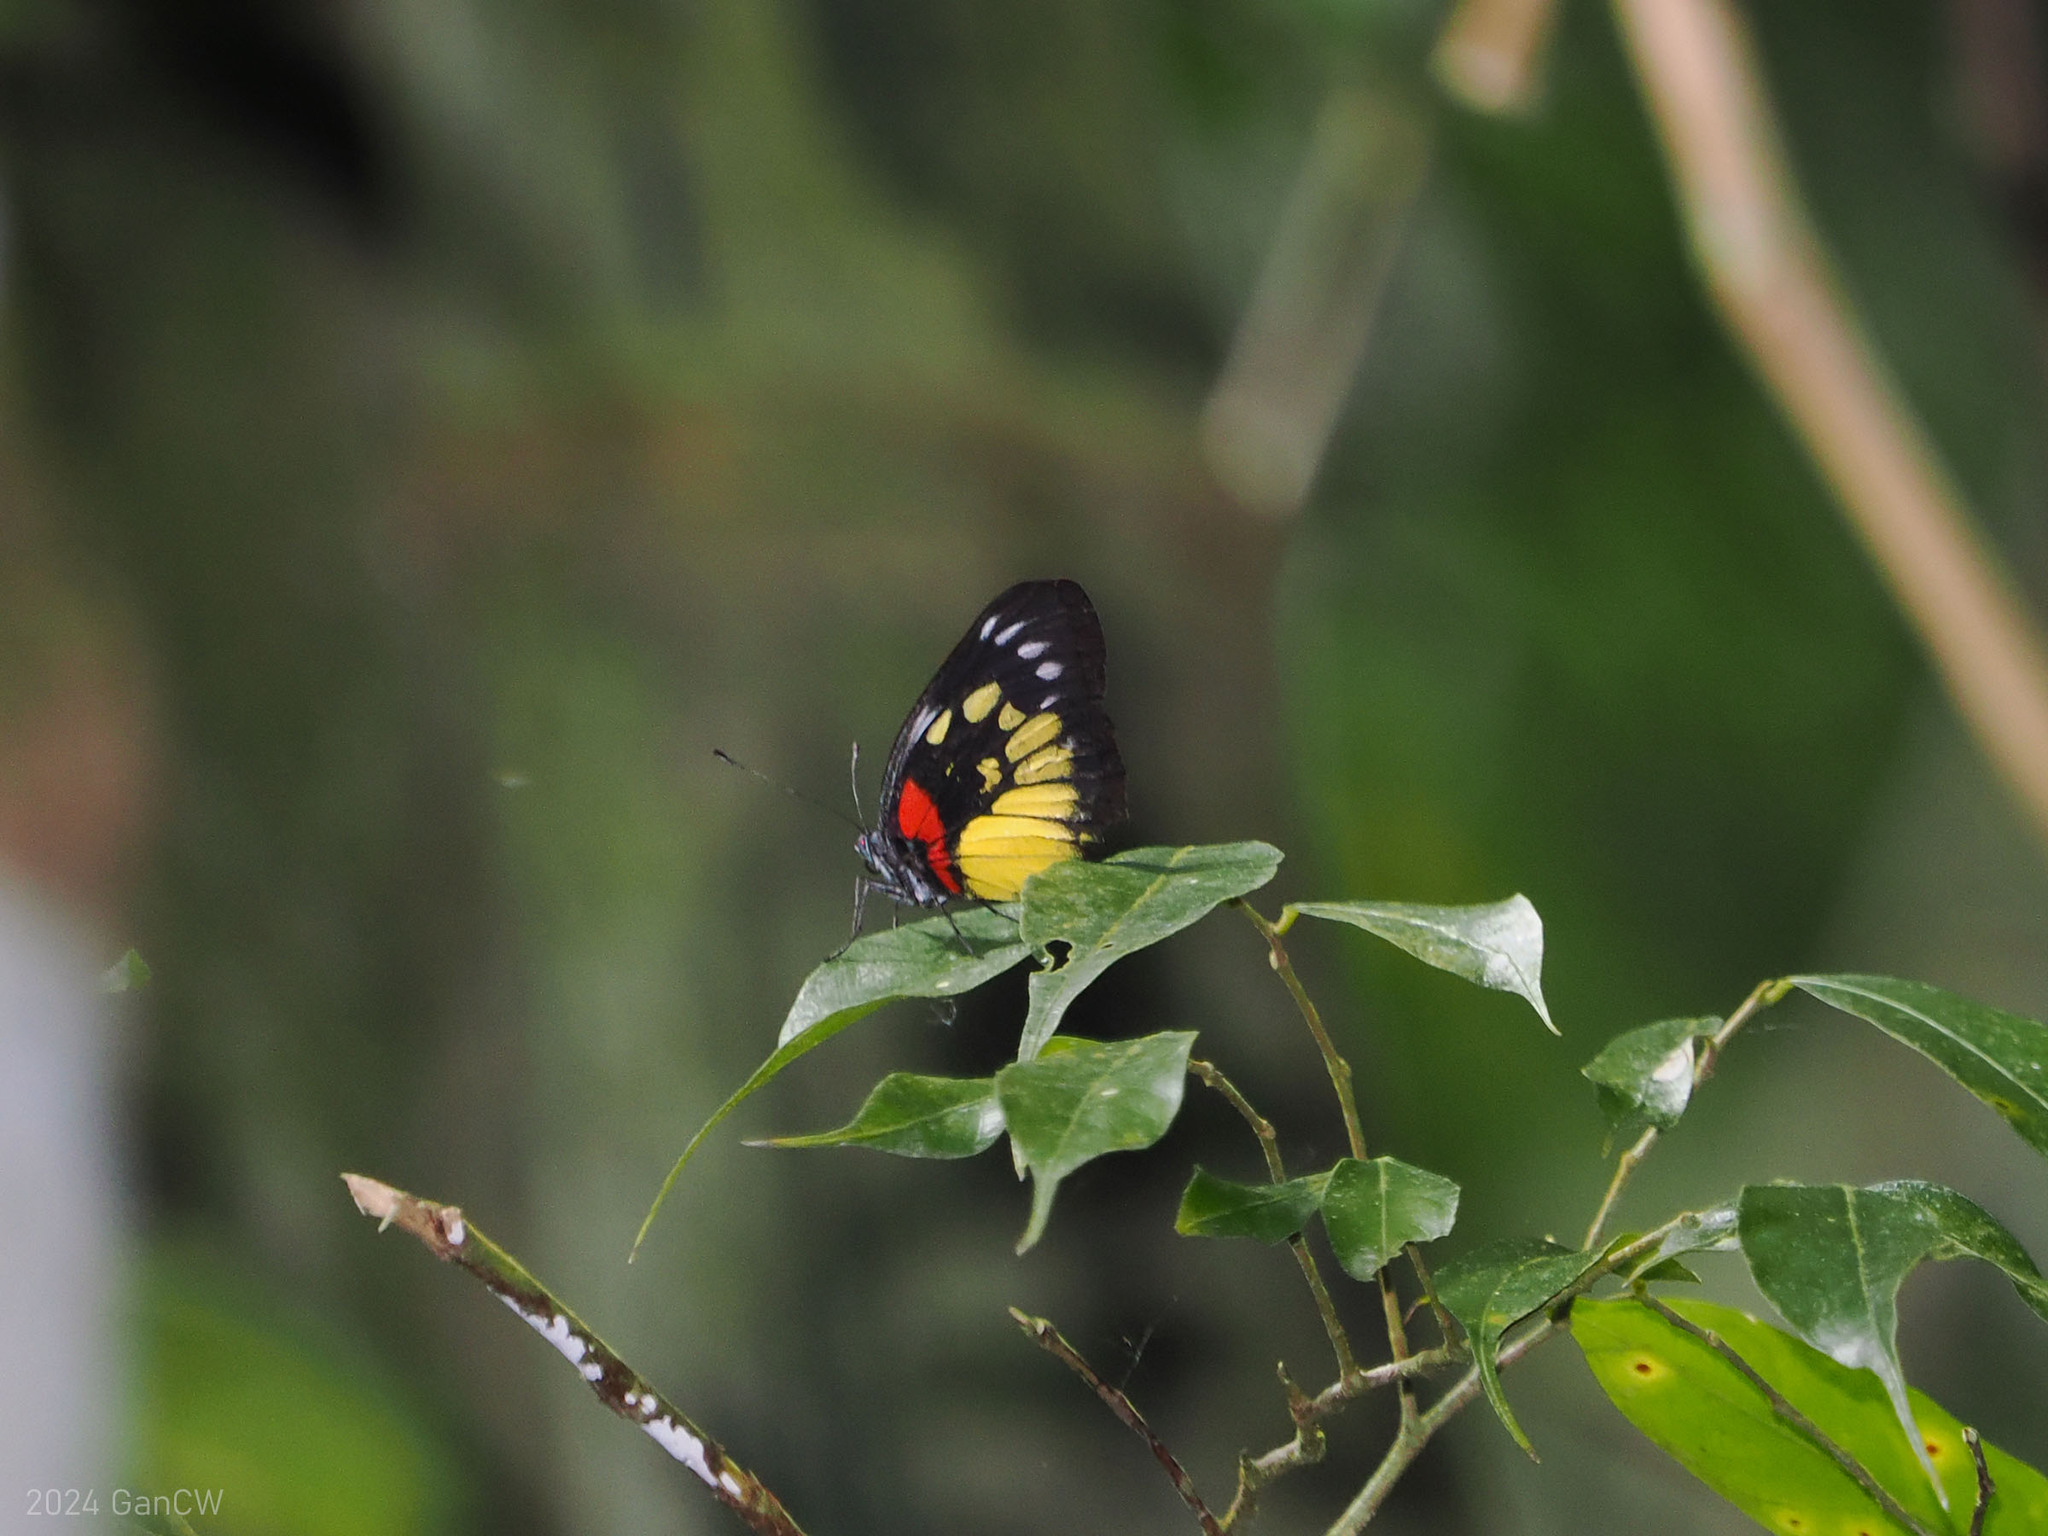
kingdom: Animalia
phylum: Arthropoda
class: Insecta
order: Lepidoptera
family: Pieridae
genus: Delias
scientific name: Delias henningia
